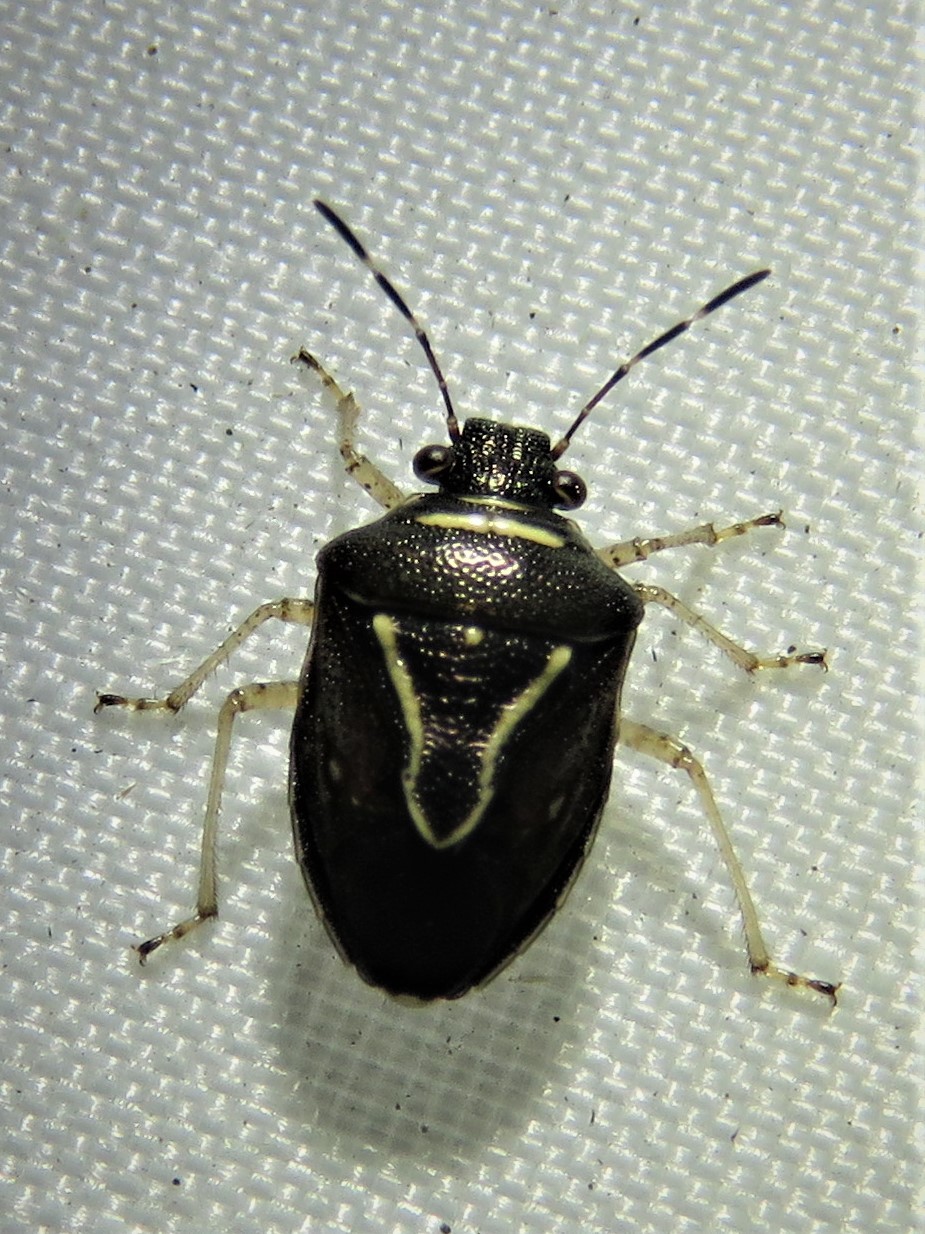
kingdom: Animalia
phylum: Arthropoda
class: Insecta
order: Hemiptera
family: Pentatomidae
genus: Mormidea
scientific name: Mormidea lugens
